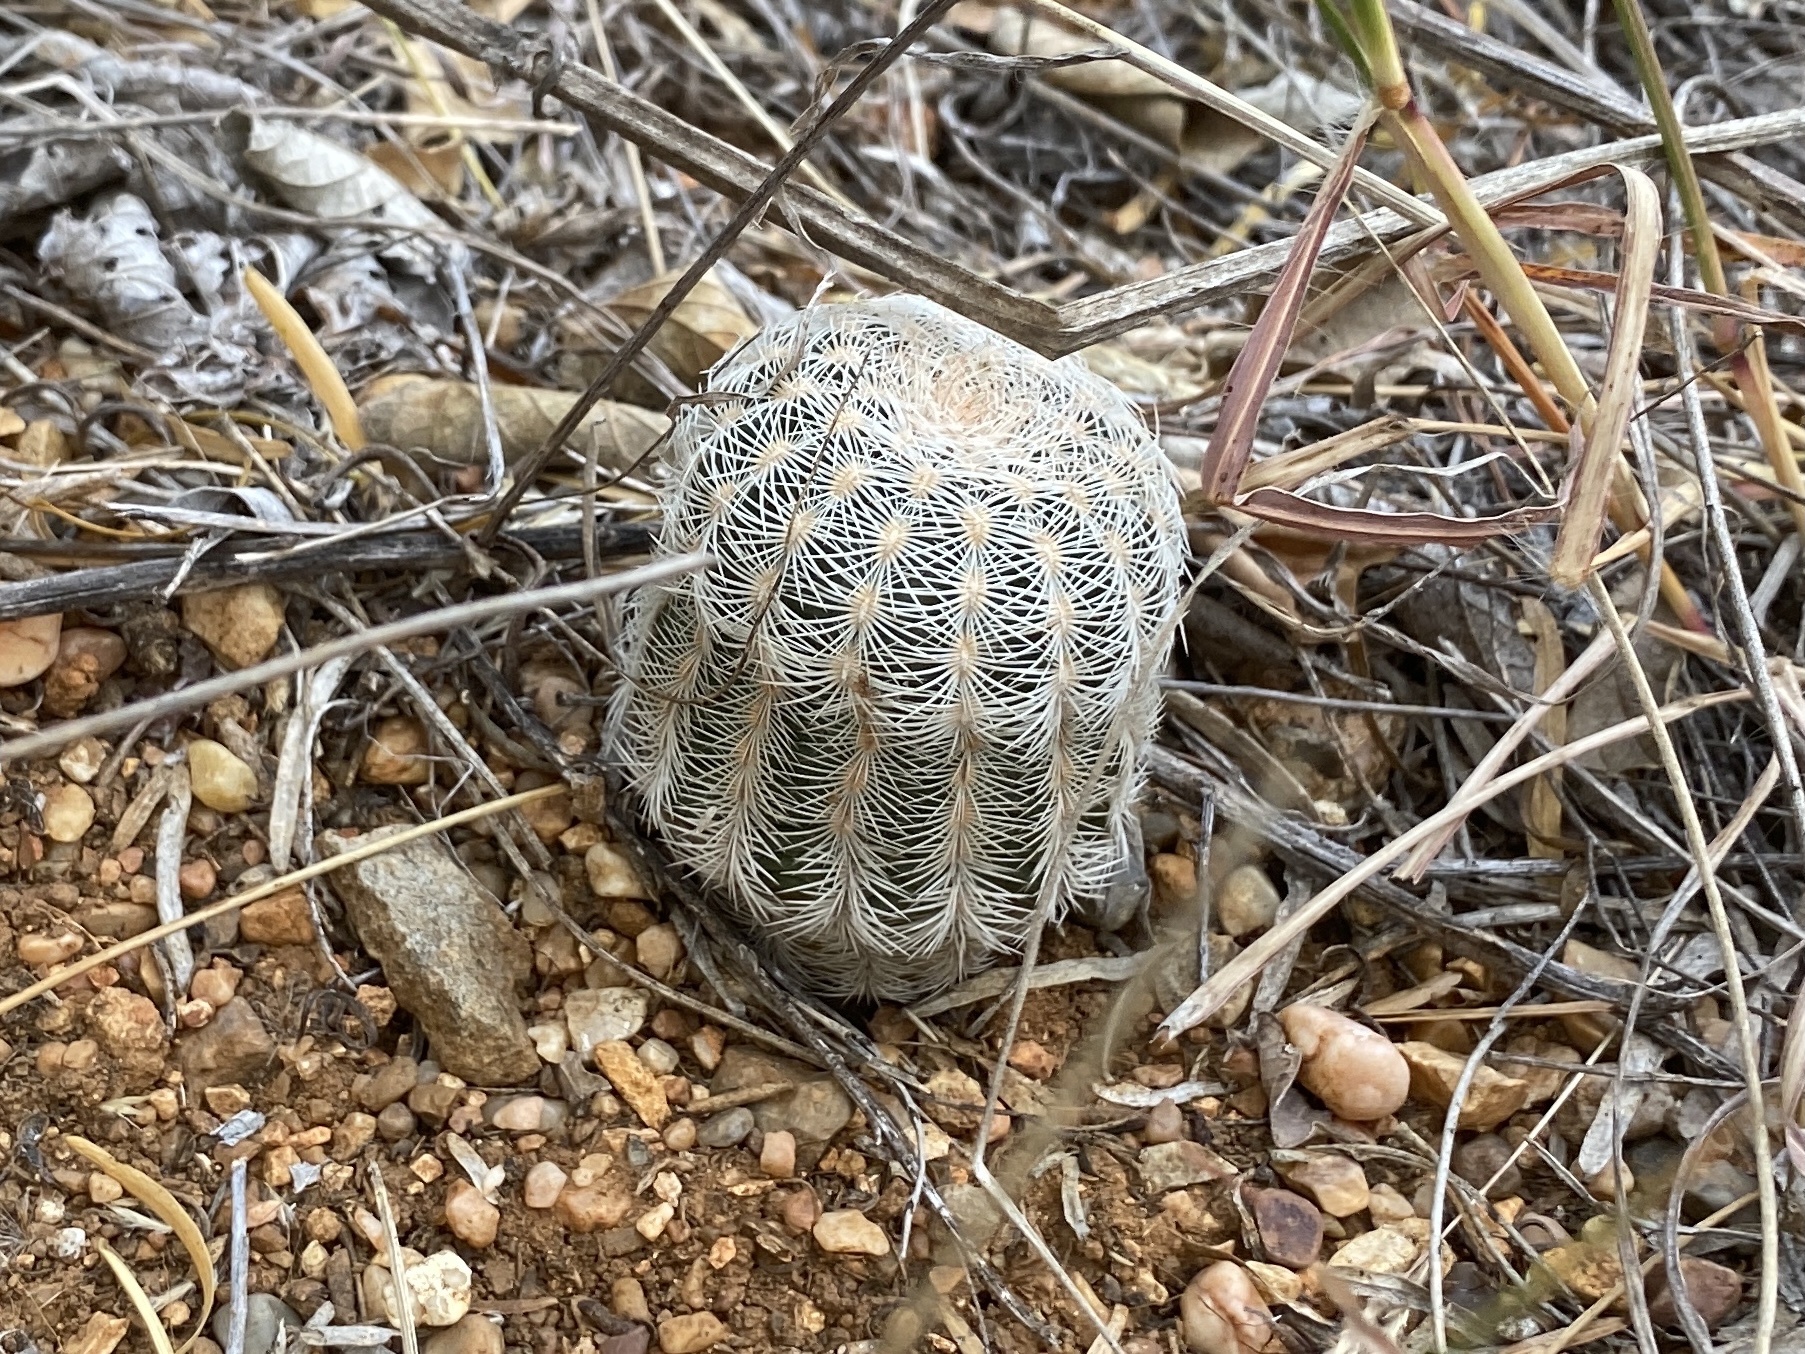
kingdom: Plantae
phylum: Tracheophyta
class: Magnoliopsida
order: Caryophyllales
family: Cactaceae
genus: Echinocereus
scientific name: Echinocereus reichenbachii
